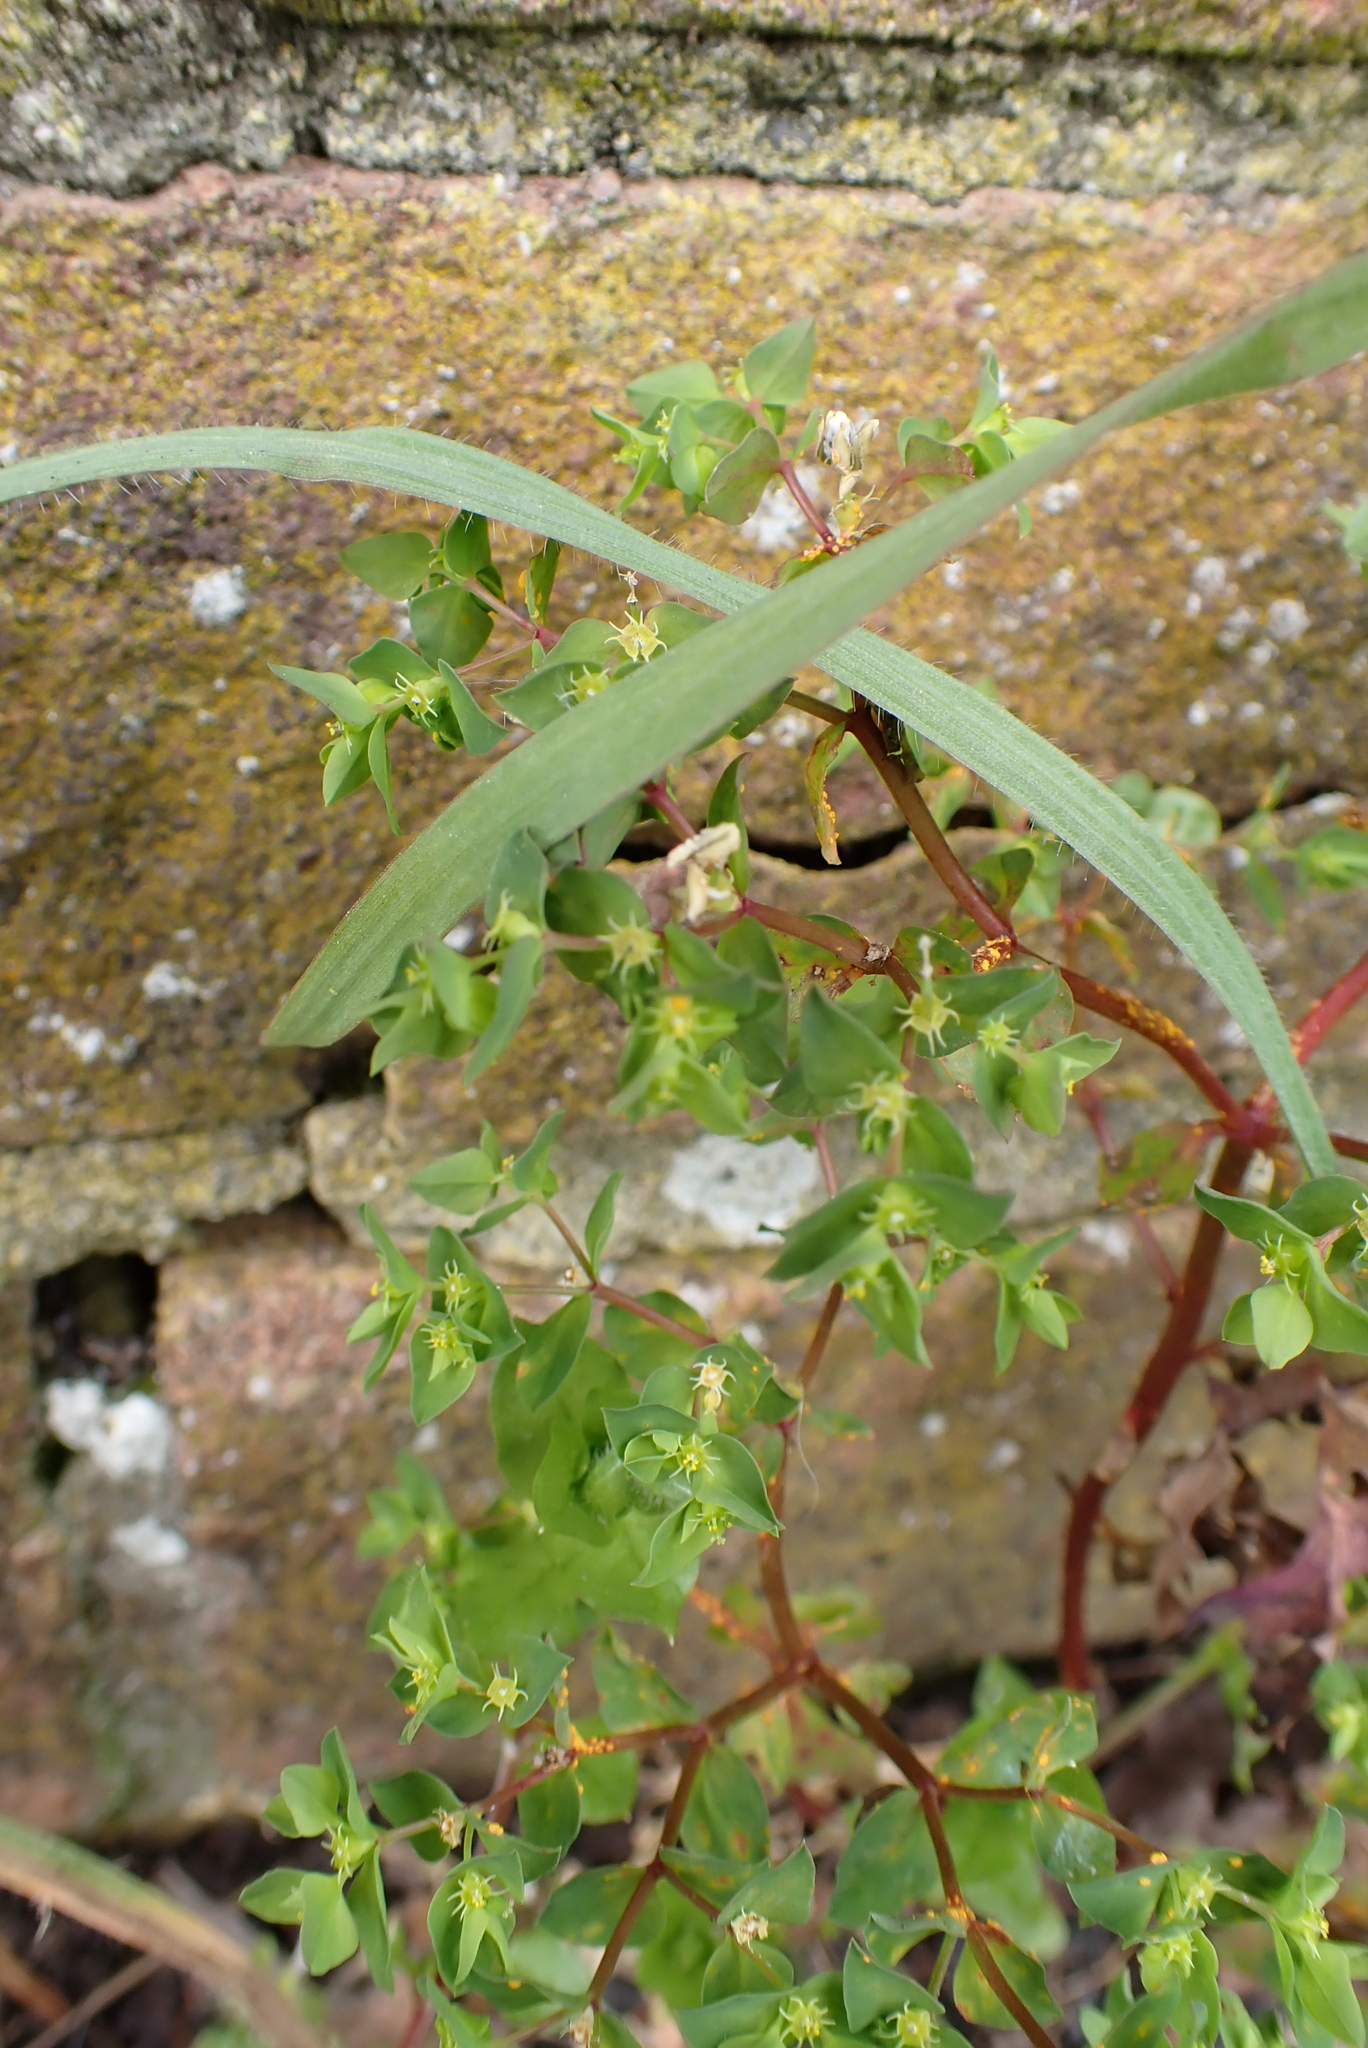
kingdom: Plantae
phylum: Tracheophyta
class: Magnoliopsida
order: Malpighiales
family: Euphorbiaceae
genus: Euphorbia
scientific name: Euphorbia peplus
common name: Petty spurge
